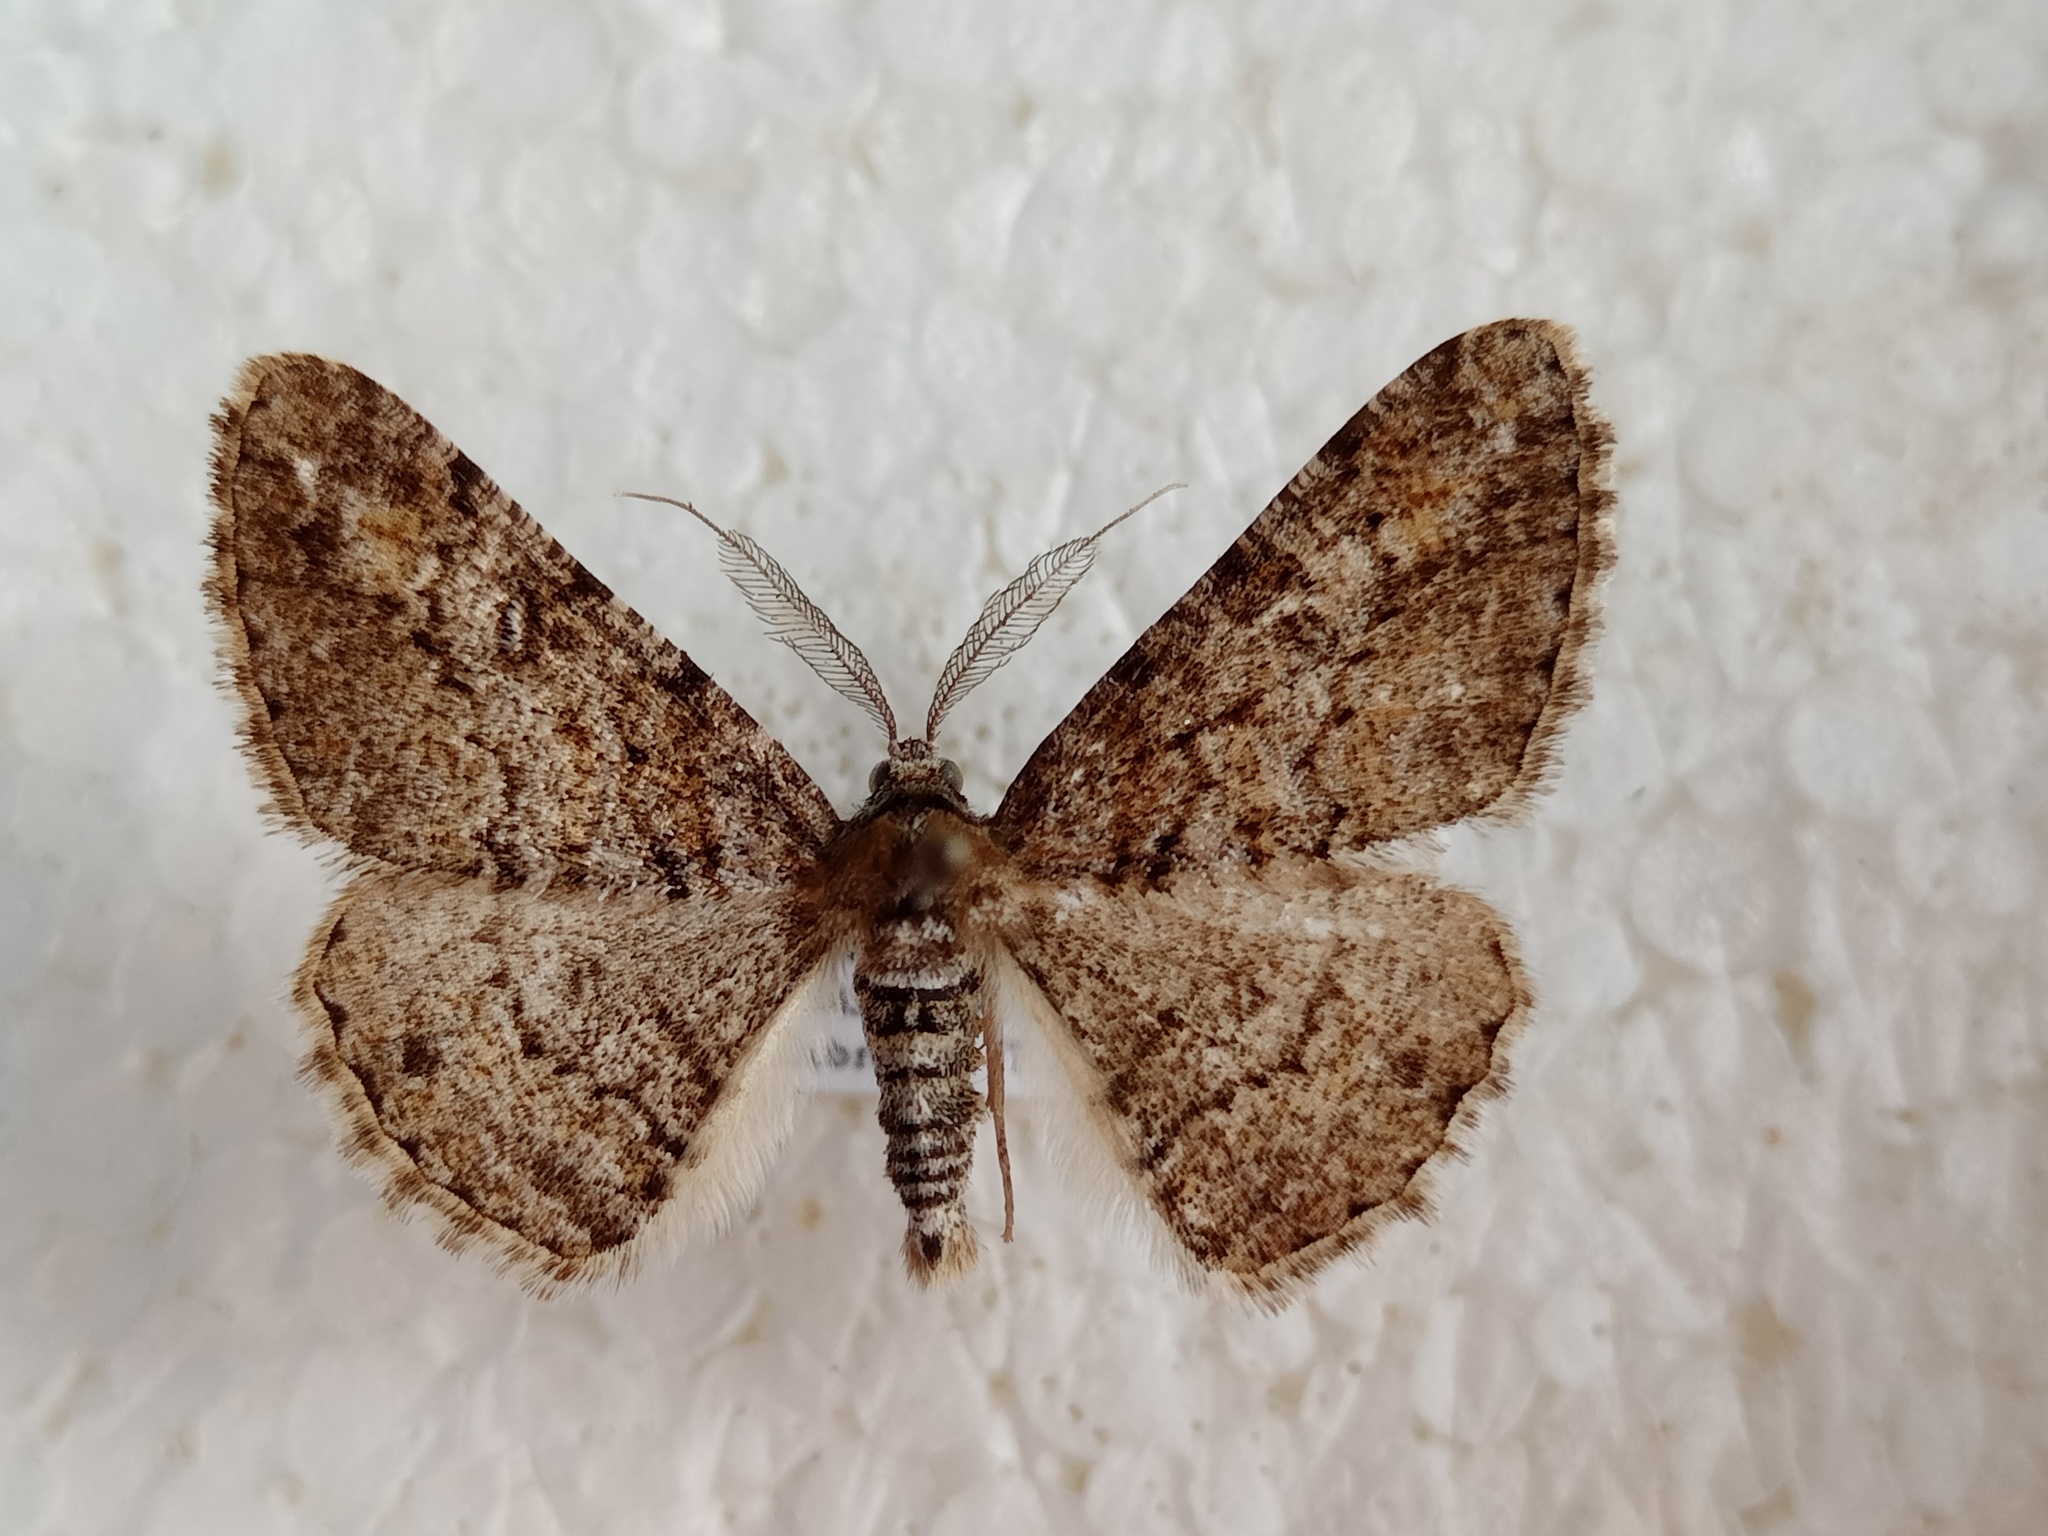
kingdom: Animalia
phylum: Arthropoda
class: Insecta
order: Lepidoptera
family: Geometridae
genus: Cleora
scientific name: Cleora cinctaria
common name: Ringed carpet
